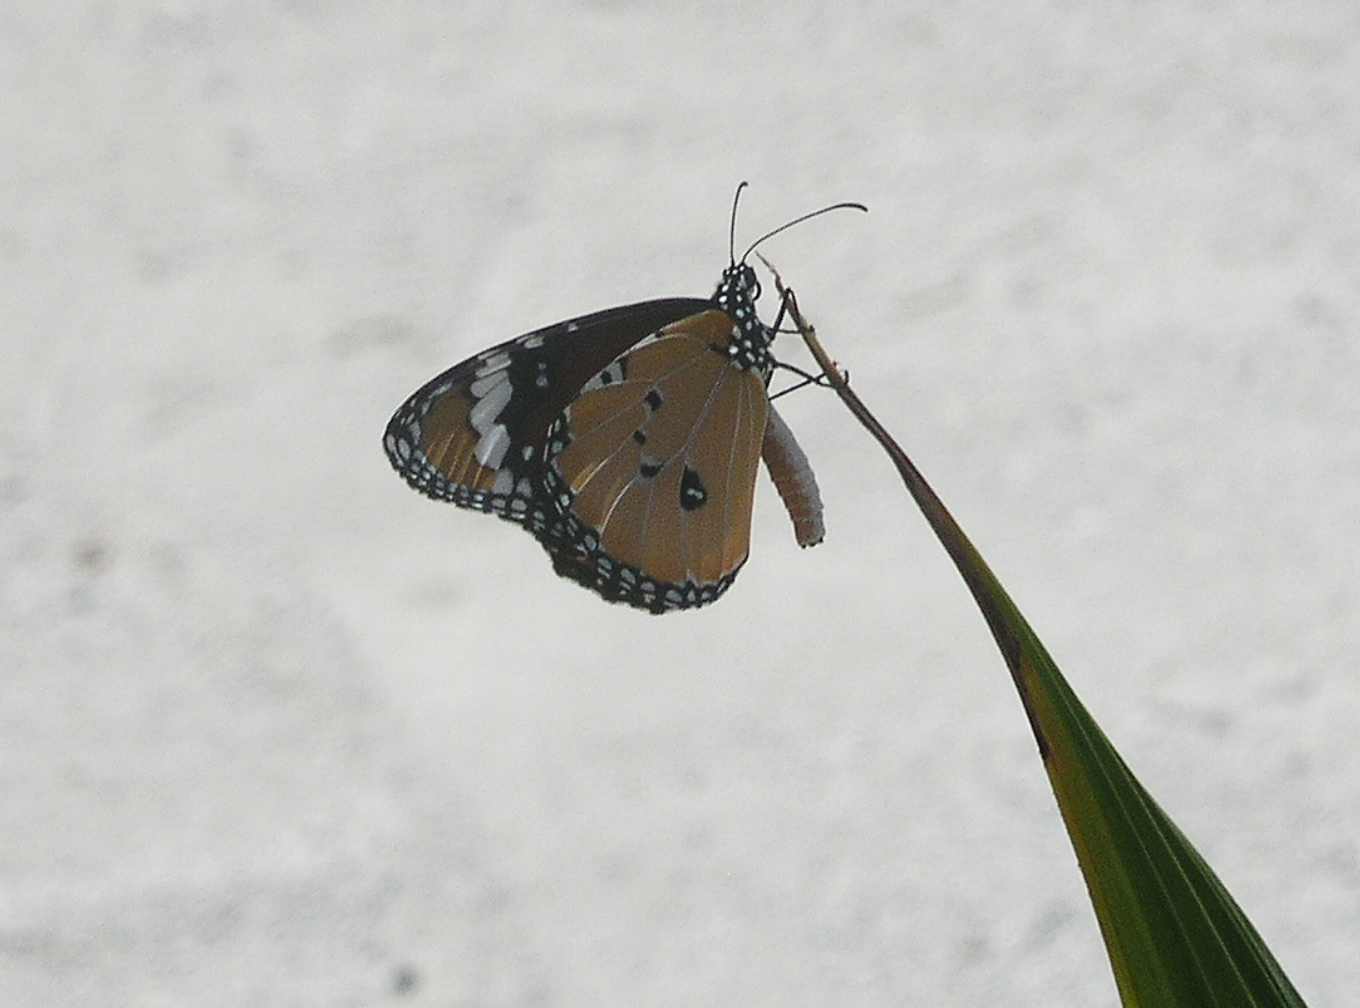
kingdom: Animalia
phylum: Arthropoda
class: Insecta
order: Lepidoptera
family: Nymphalidae
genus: Danaus
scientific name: Danaus chrysippus
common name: Plain tiger
